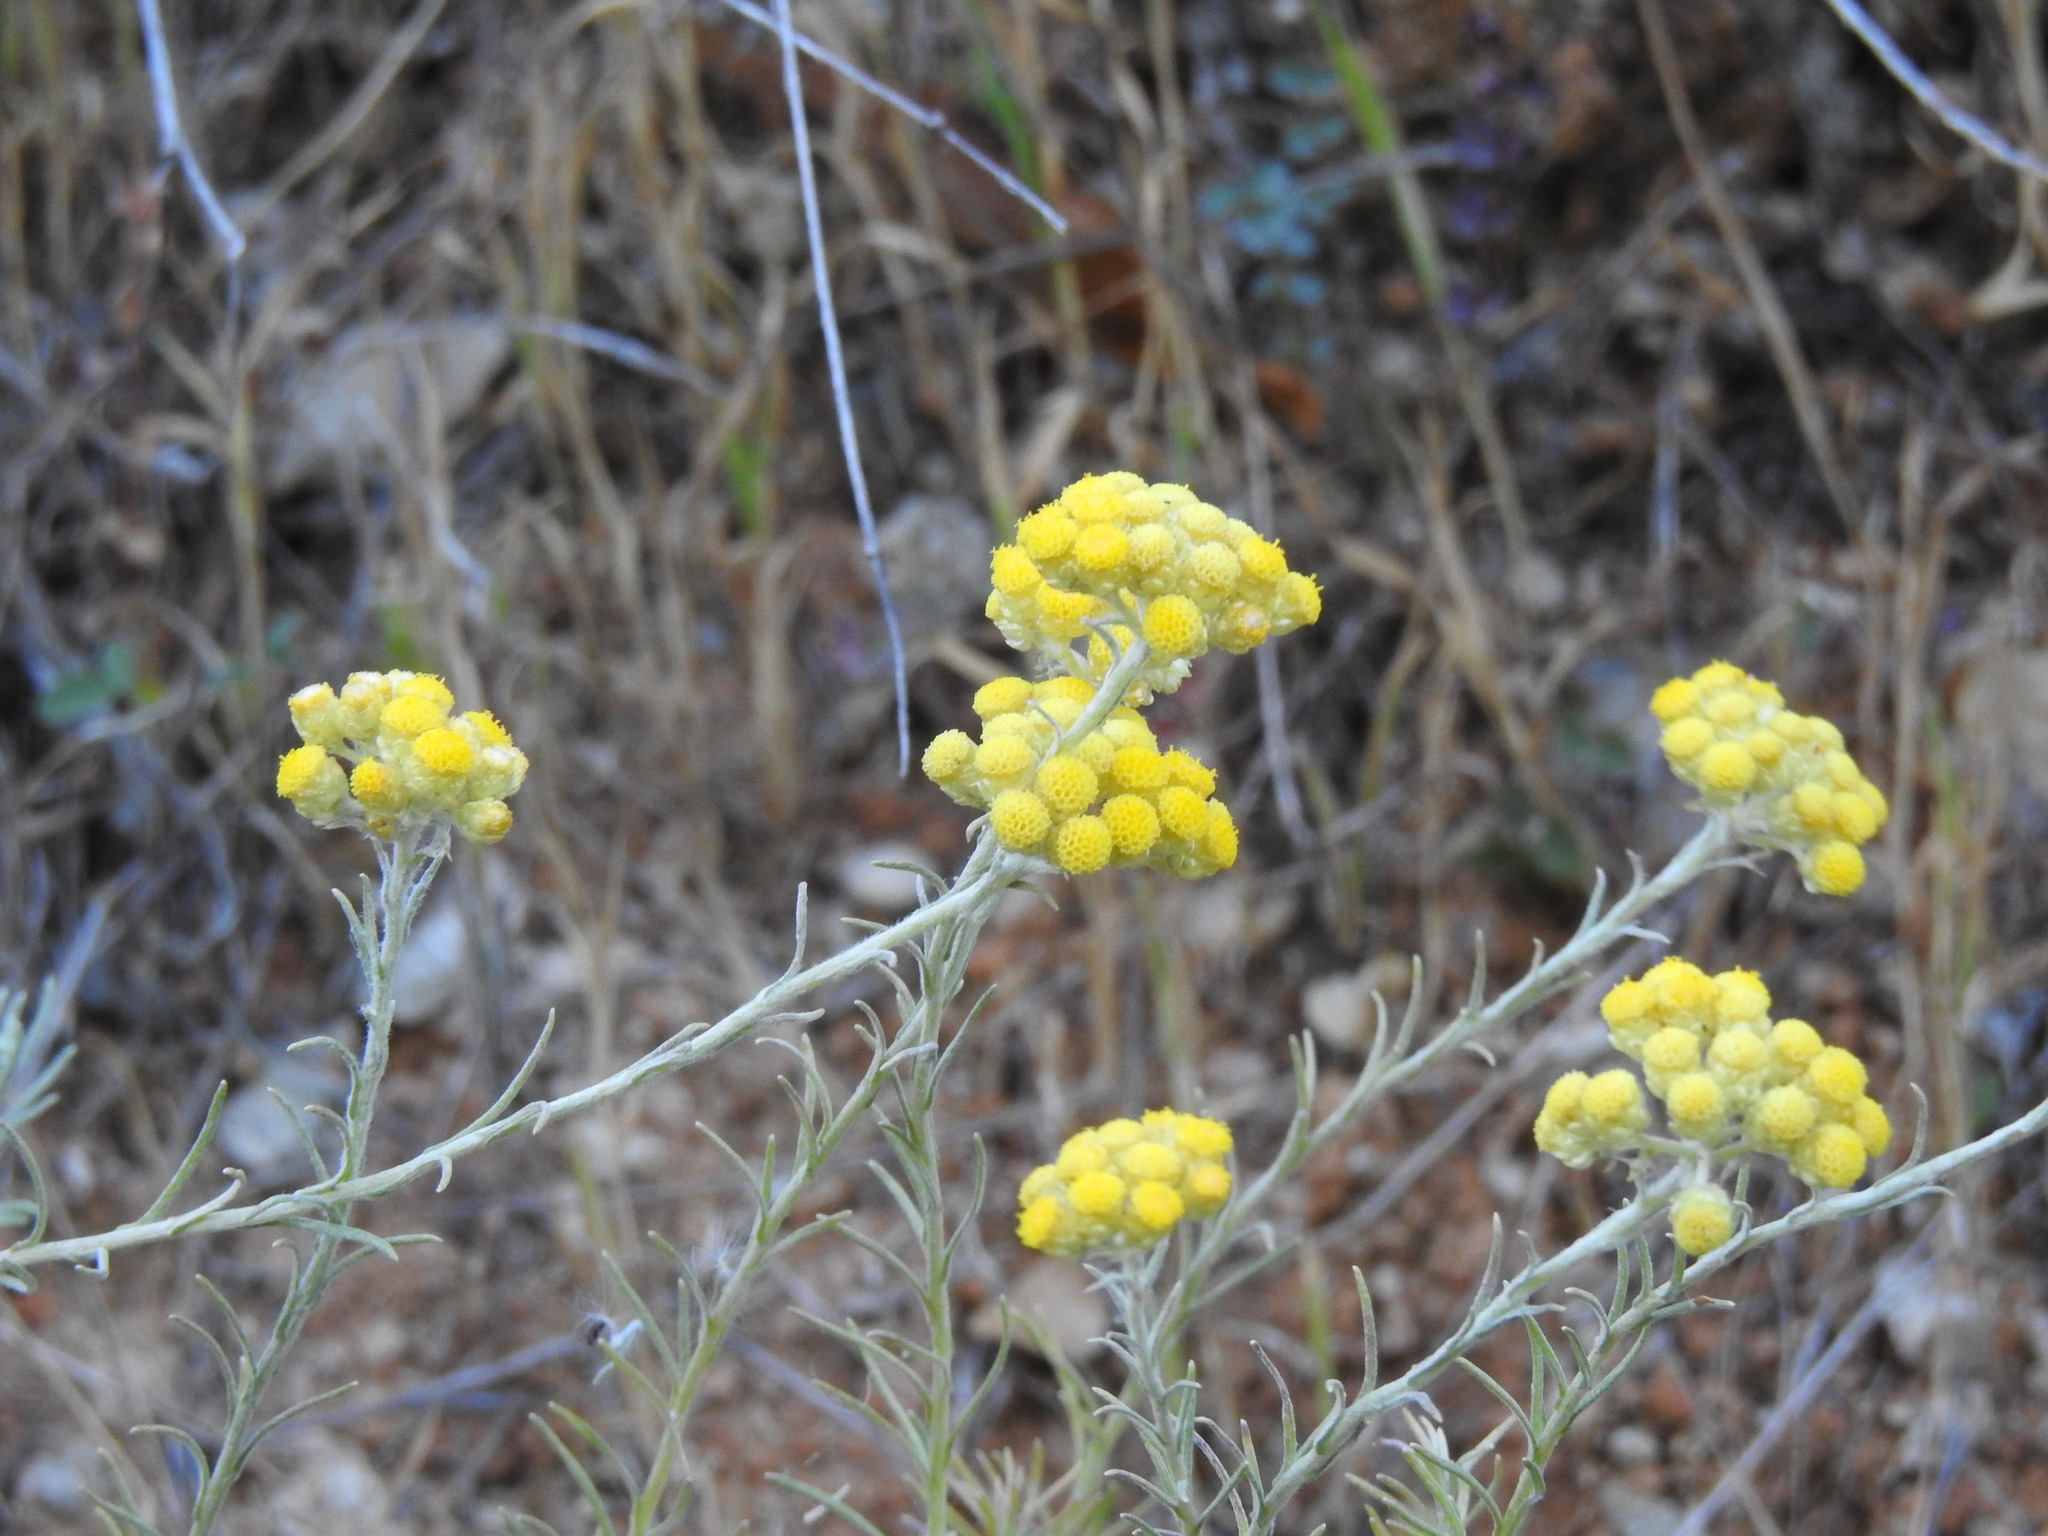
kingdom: Plantae
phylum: Tracheophyta
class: Magnoliopsida
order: Asterales
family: Asteraceae
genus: Helichrysum
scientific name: Helichrysum stoechas
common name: Goldilocks
